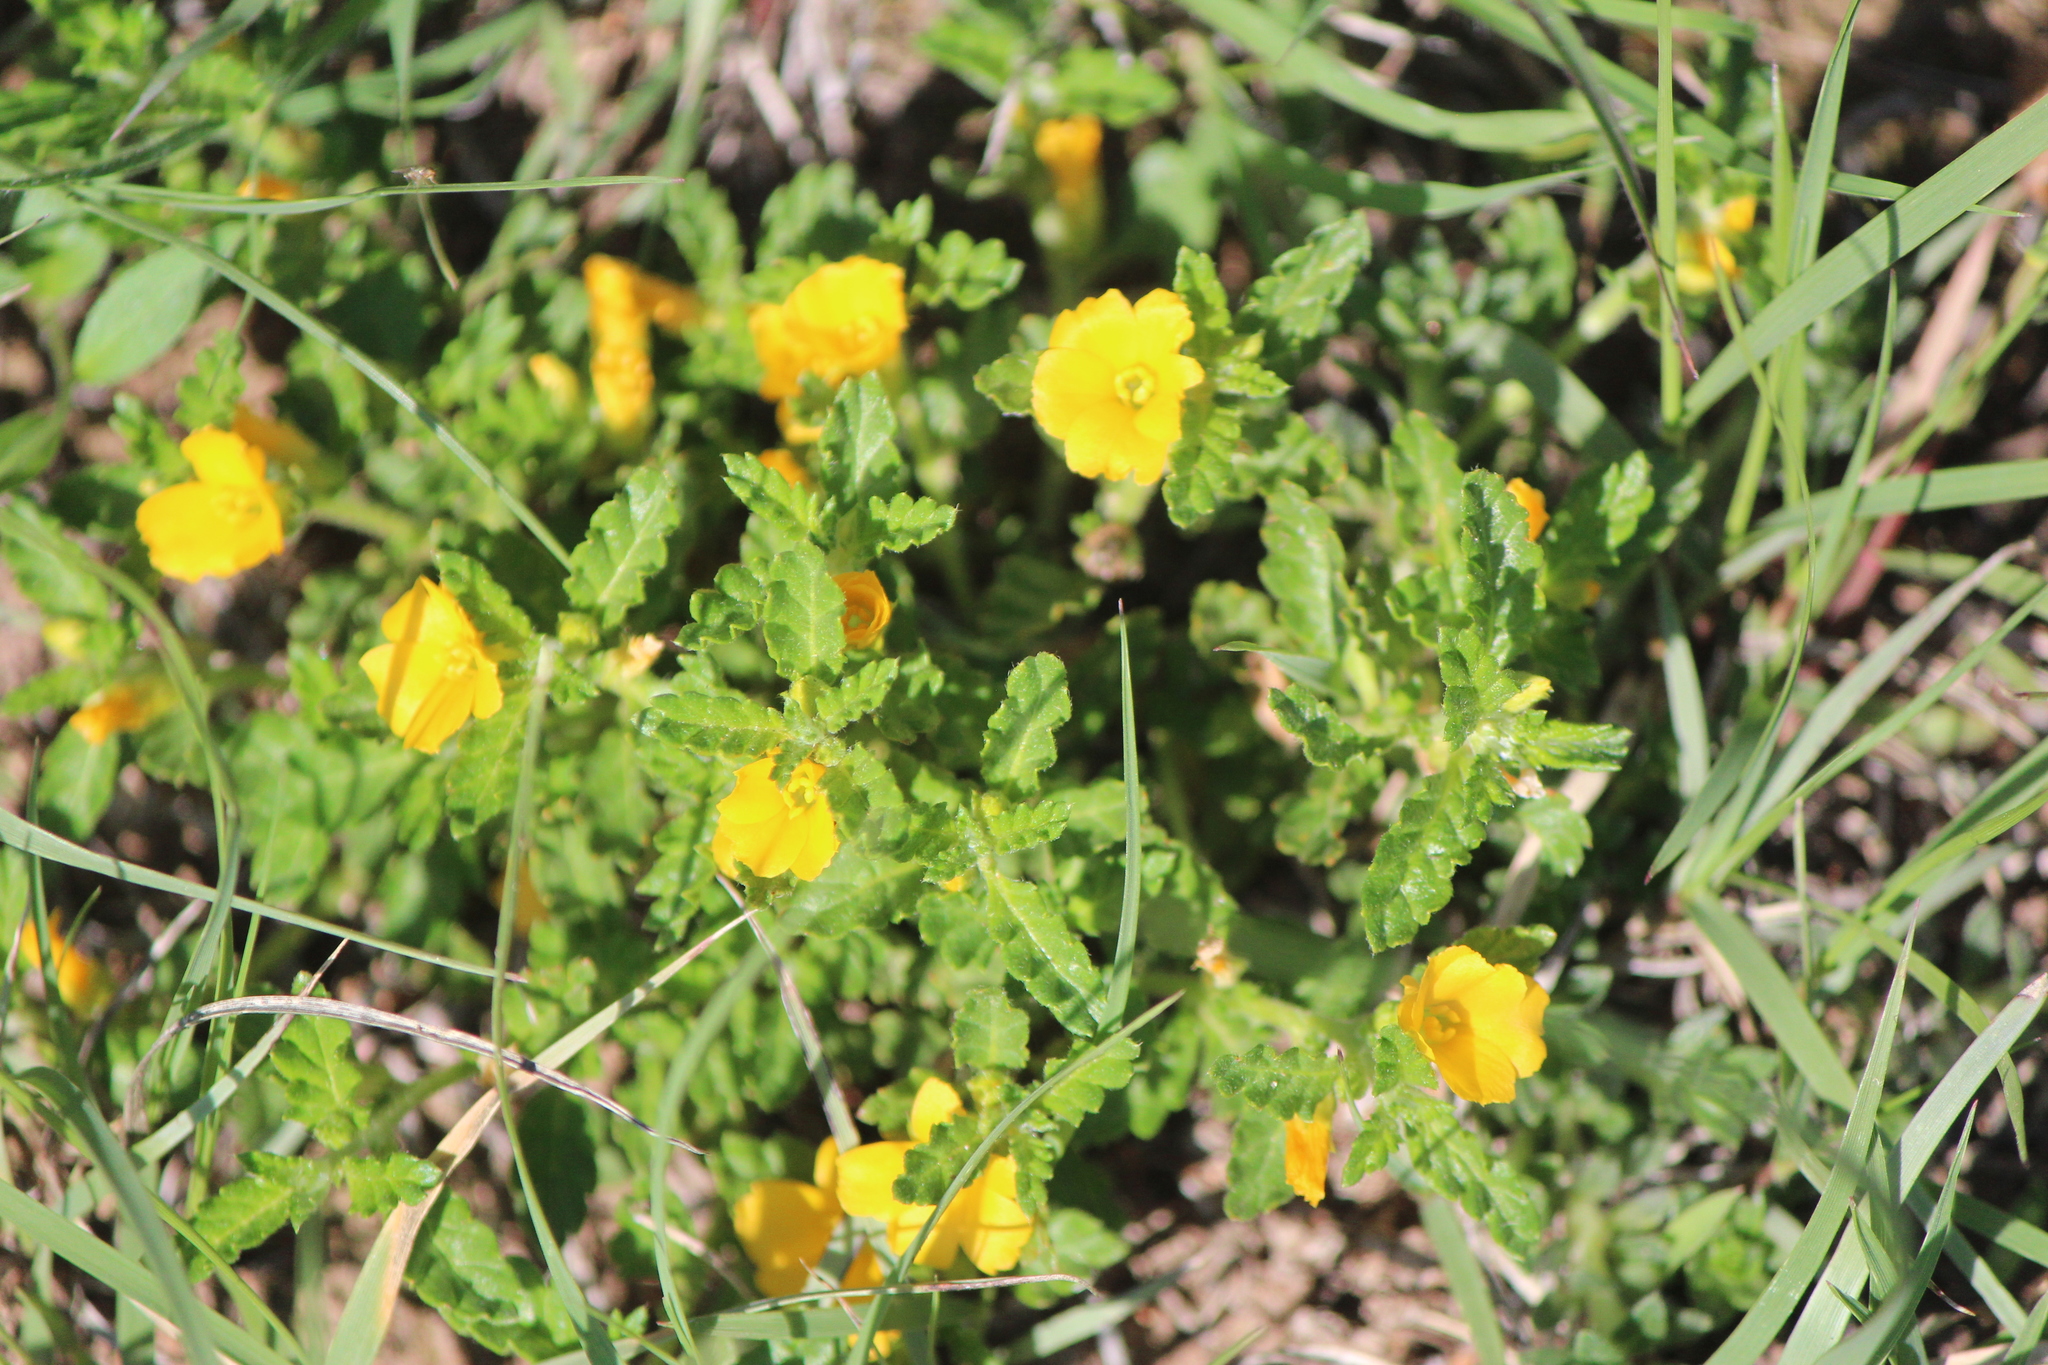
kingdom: Plantae
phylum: Tracheophyta
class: Magnoliopsida
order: Malpighiales
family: Turneraceae
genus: Turnera
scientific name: Turnera diffusa
